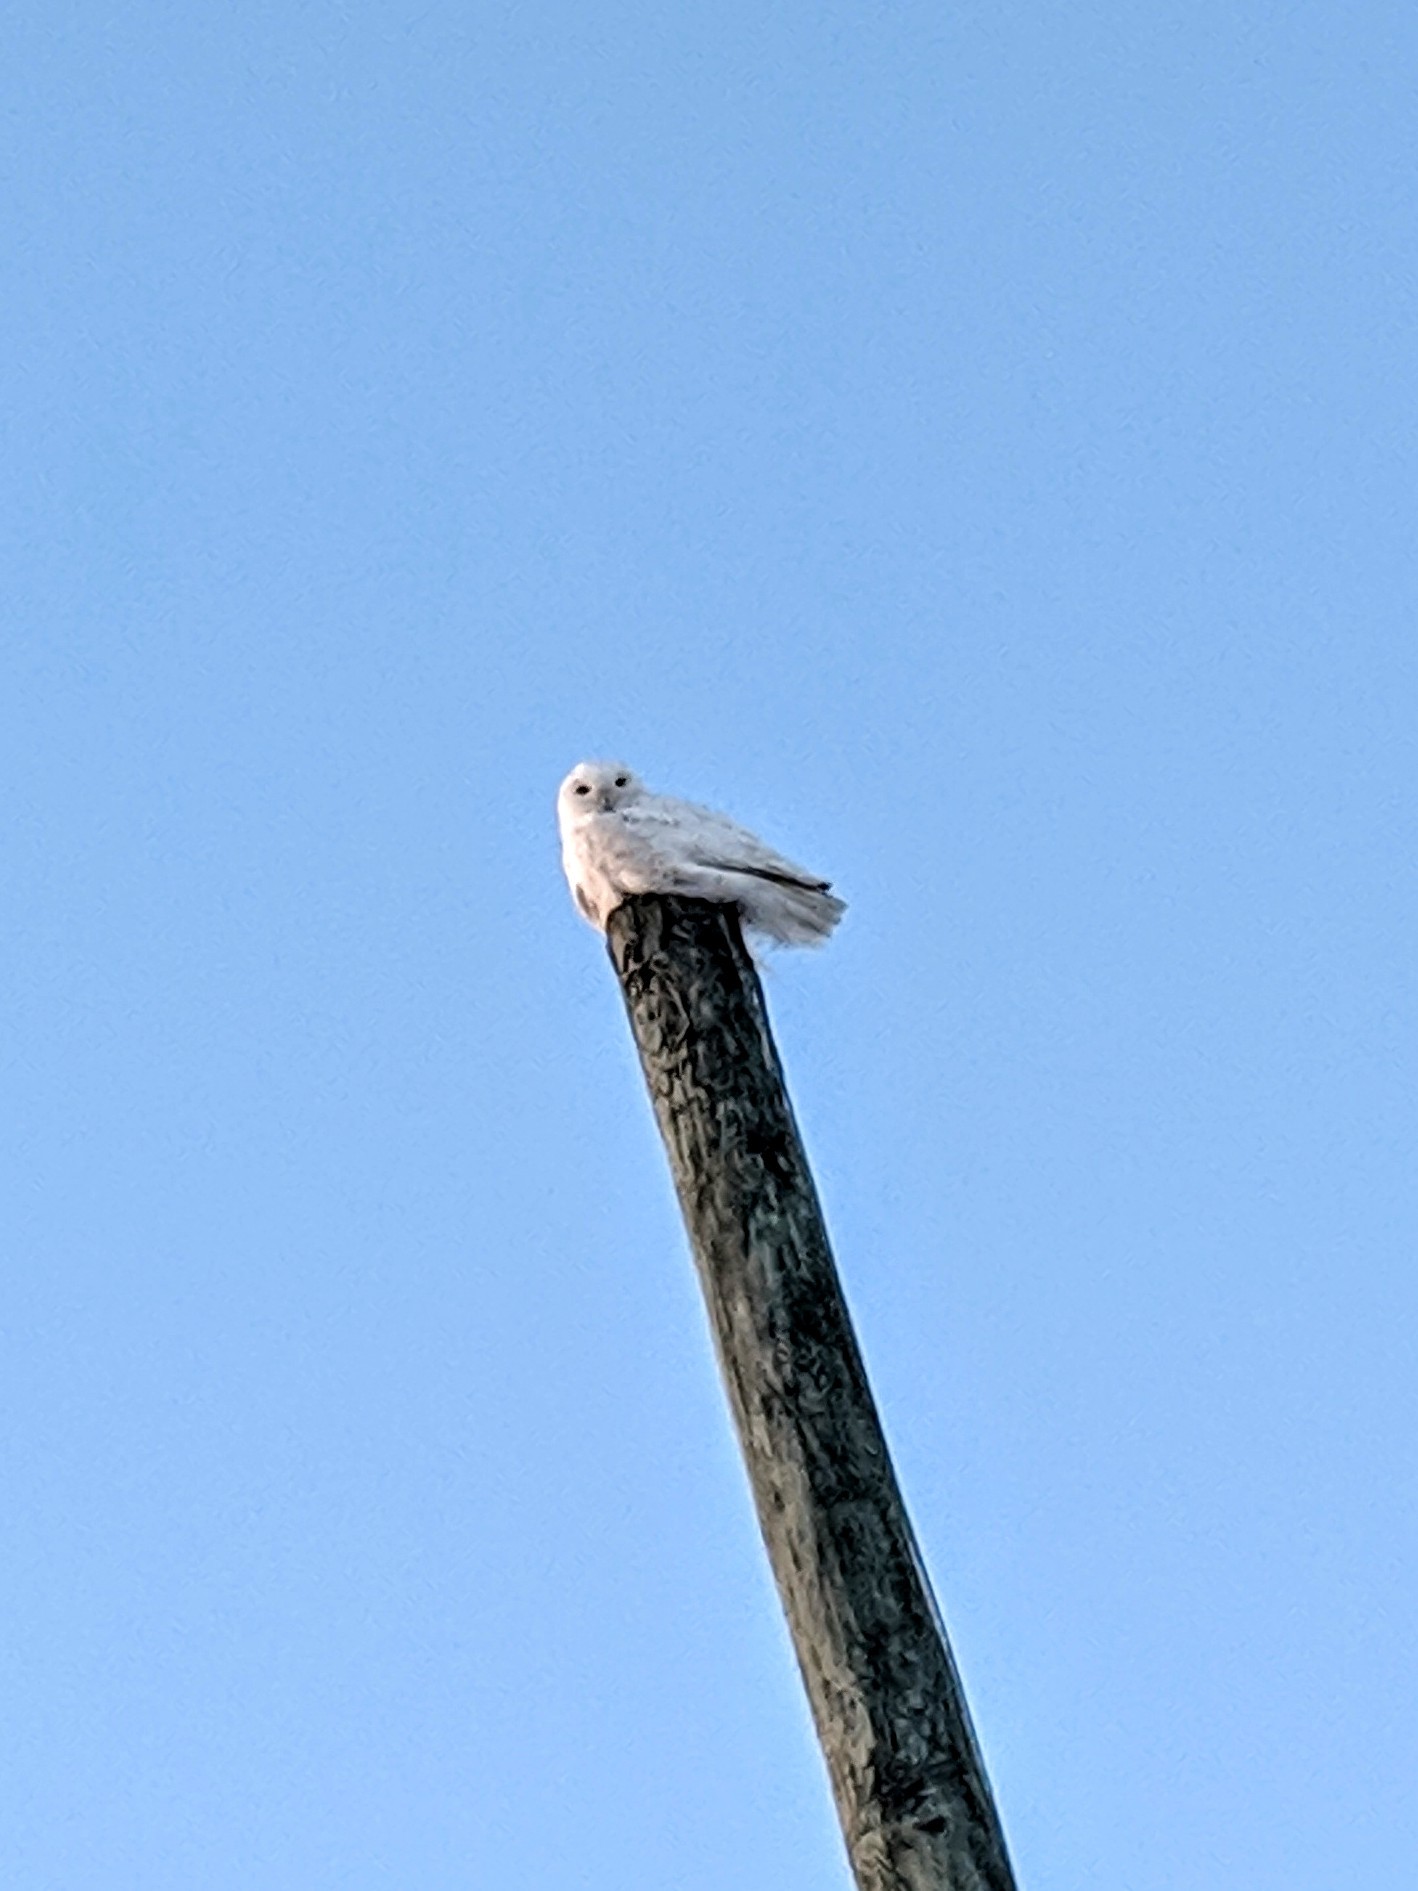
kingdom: Animalia
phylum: Chordata
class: Aves
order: Strigiformes
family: Strigidae
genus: Bubo
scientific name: Bubo scandiacus
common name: Snowy owl
